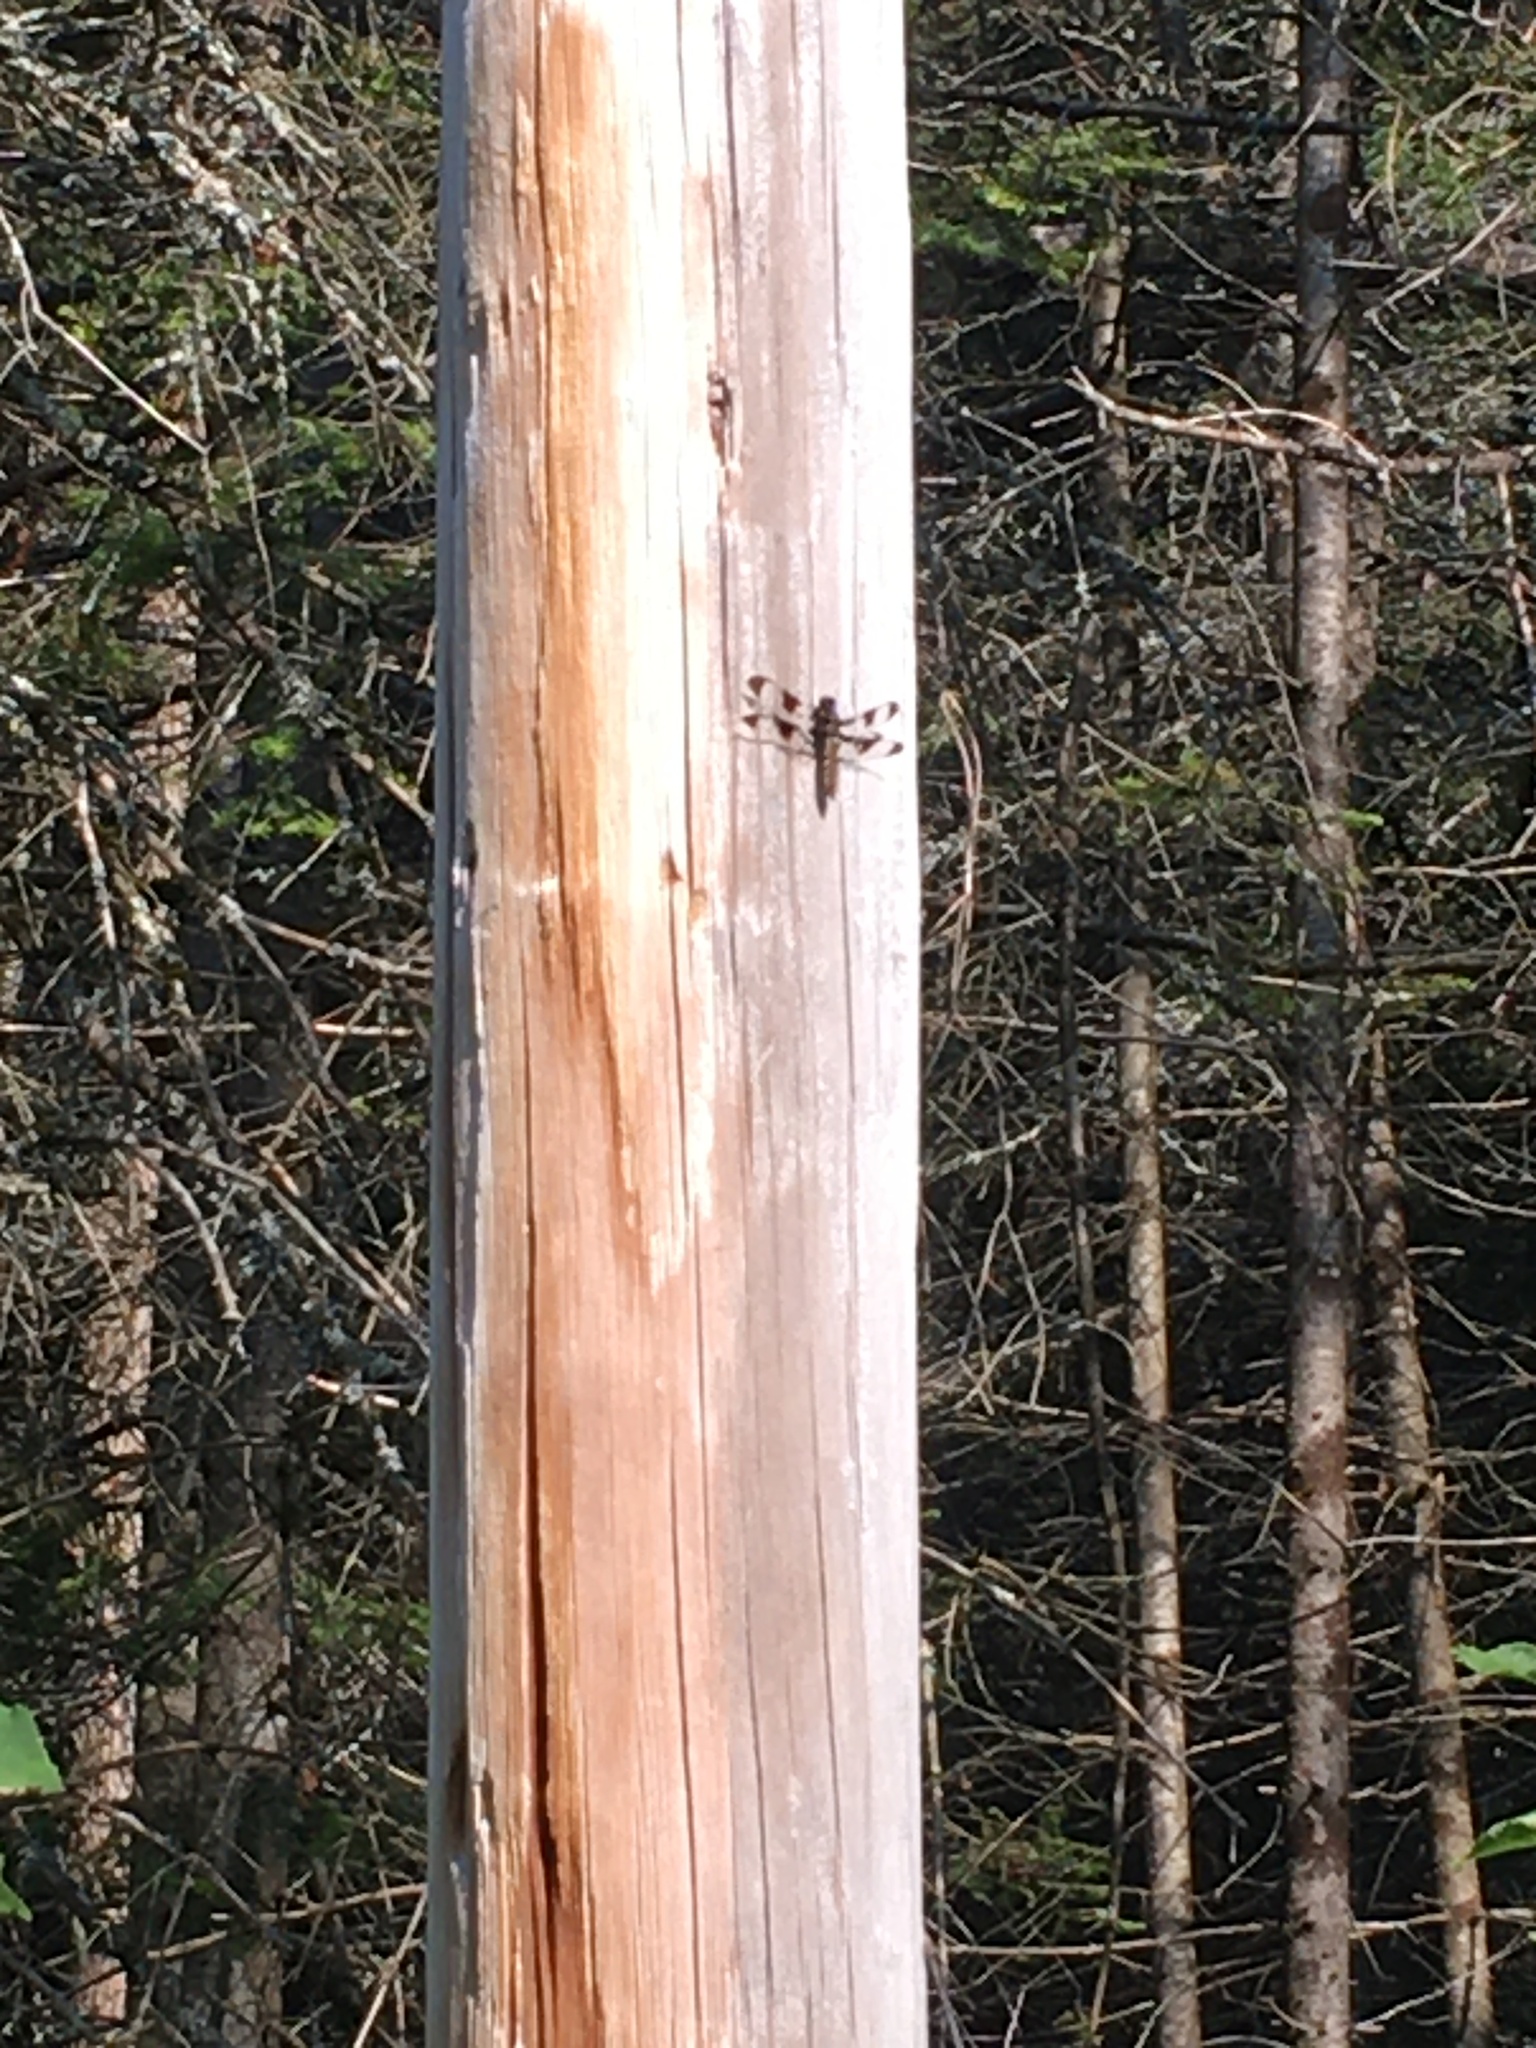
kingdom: Animalia
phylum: Arthropoda
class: Insecta
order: Odonata
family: Libellulidae
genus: Plathemis
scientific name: Plathemis lydia
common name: Common whitetail
